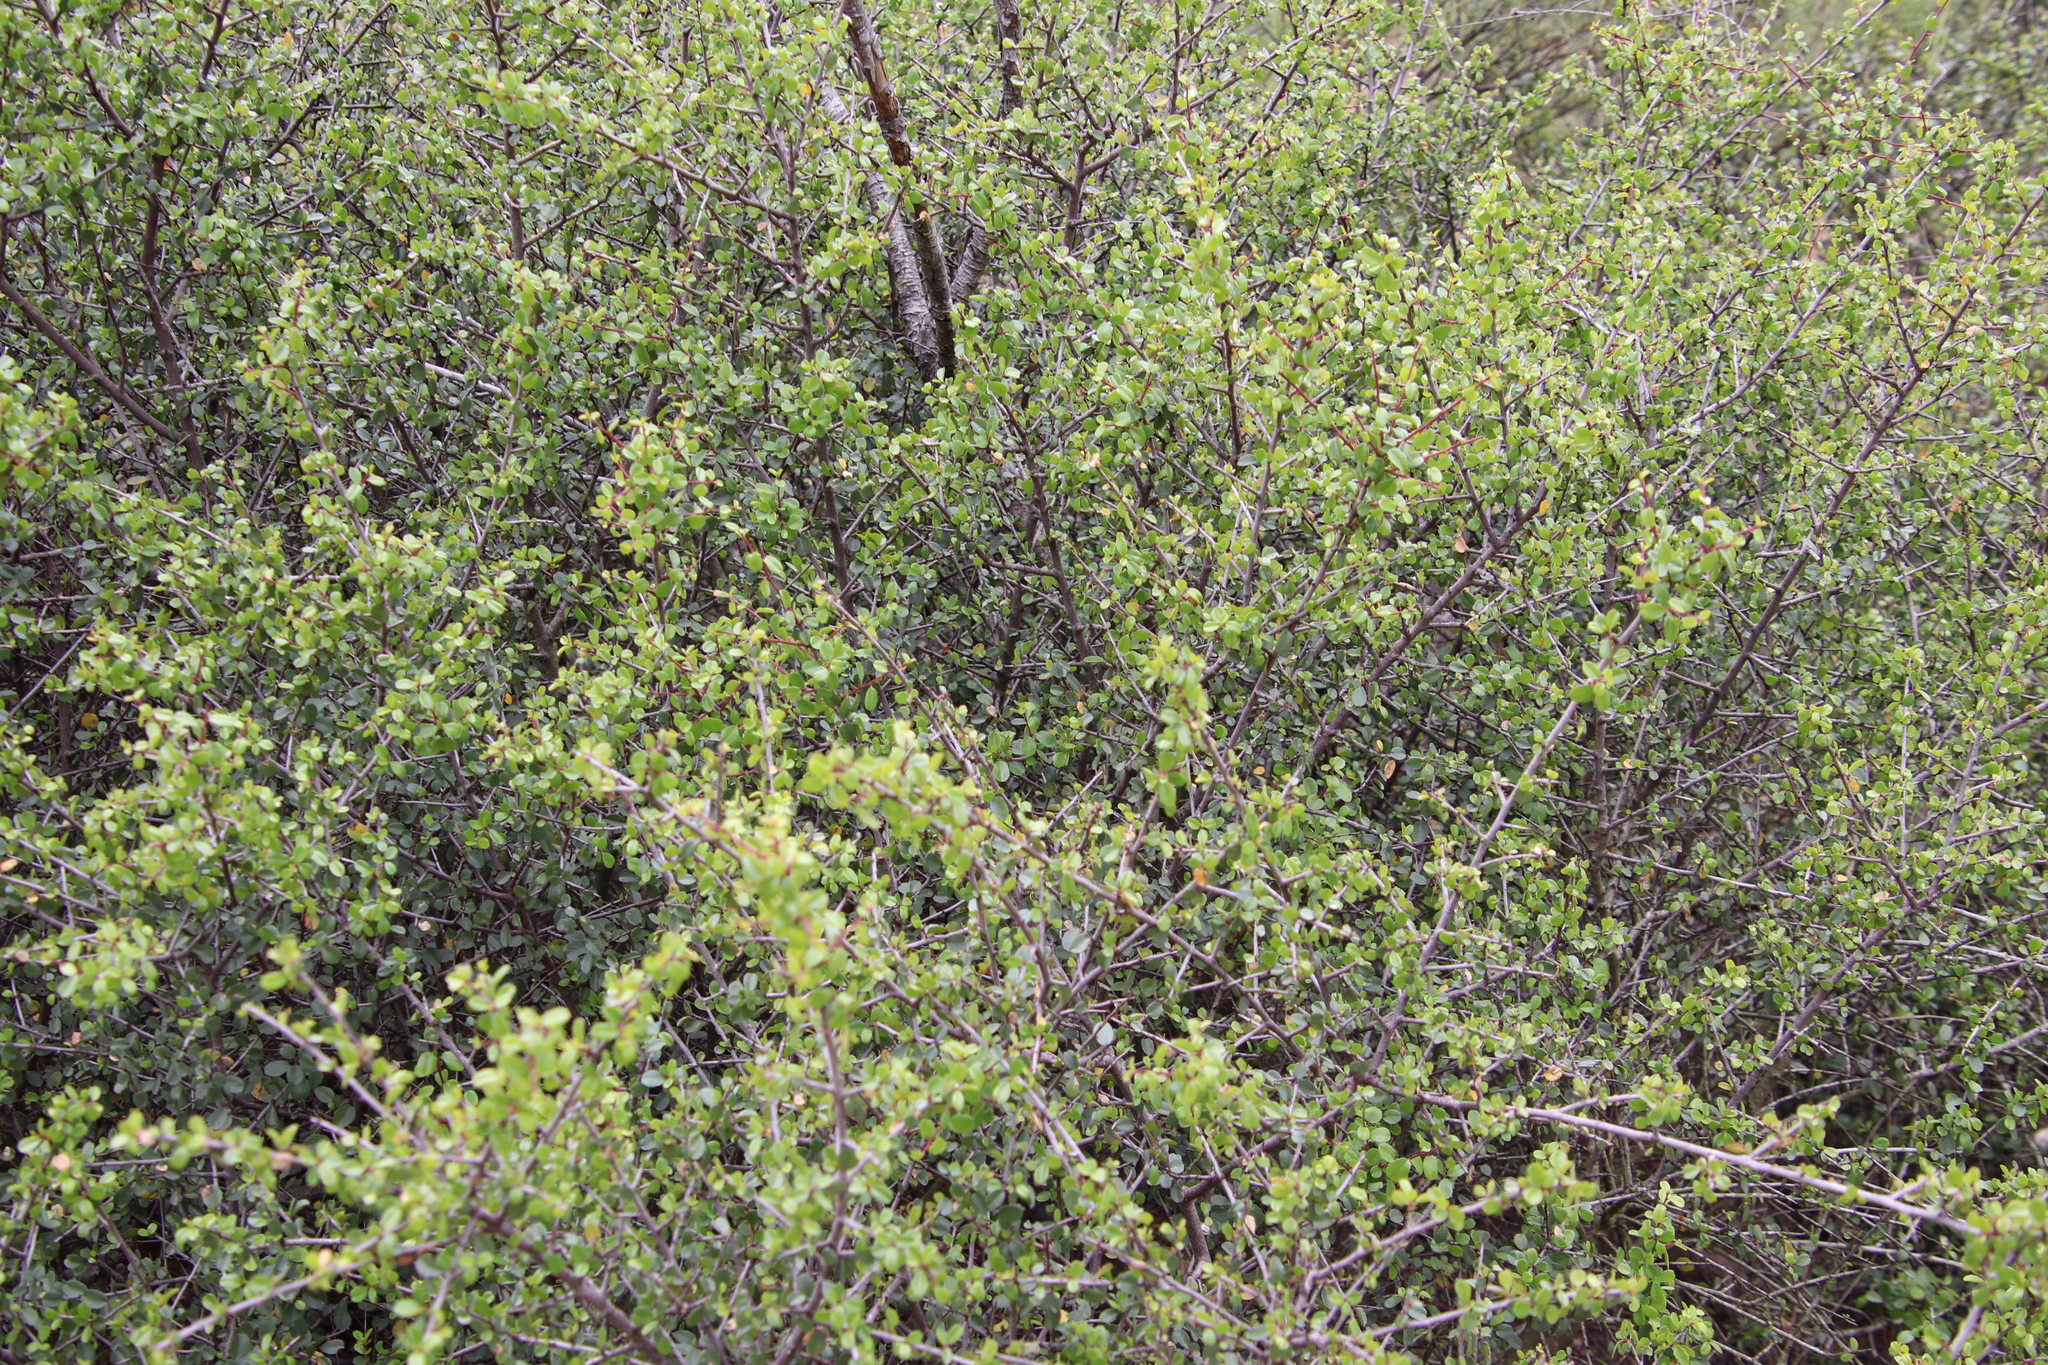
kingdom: Plantae
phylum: Tracheophyta
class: Magnoliopsida
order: Rosales
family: Rhamnaceae
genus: Endotropis
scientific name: Endotropis crocea
